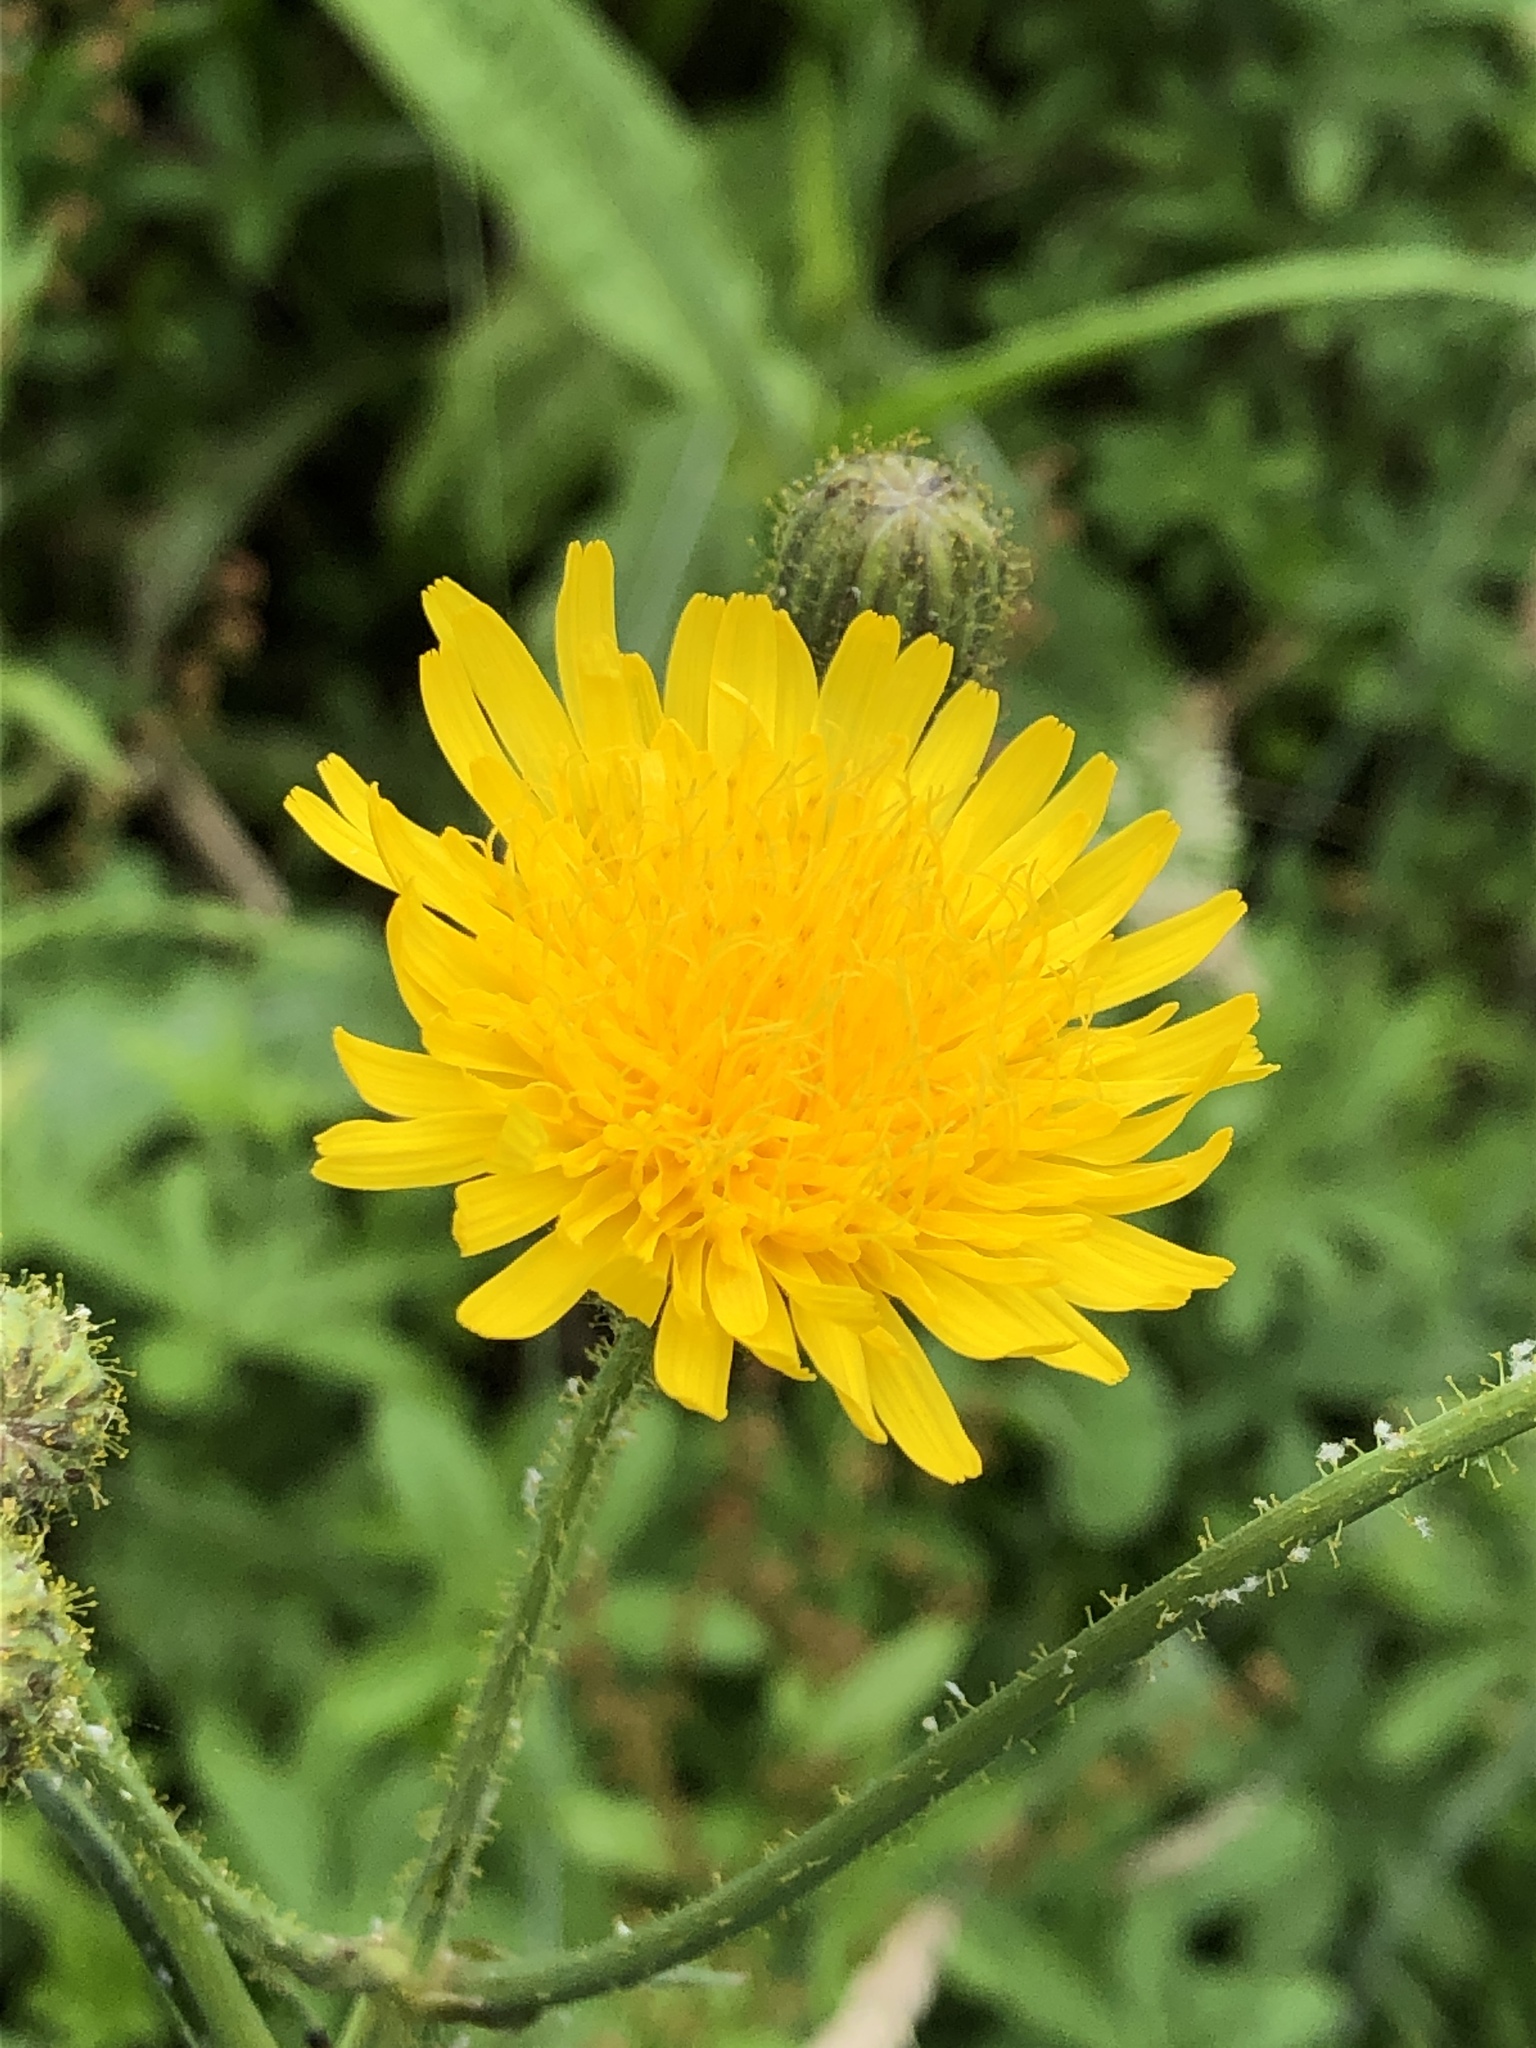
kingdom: Plantae
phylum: Tracheophyta
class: Magnoliopsida
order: Asterales
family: Asteraceae
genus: Sonchus
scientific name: Sonchus arvensis
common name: Perennial sow-thistle
